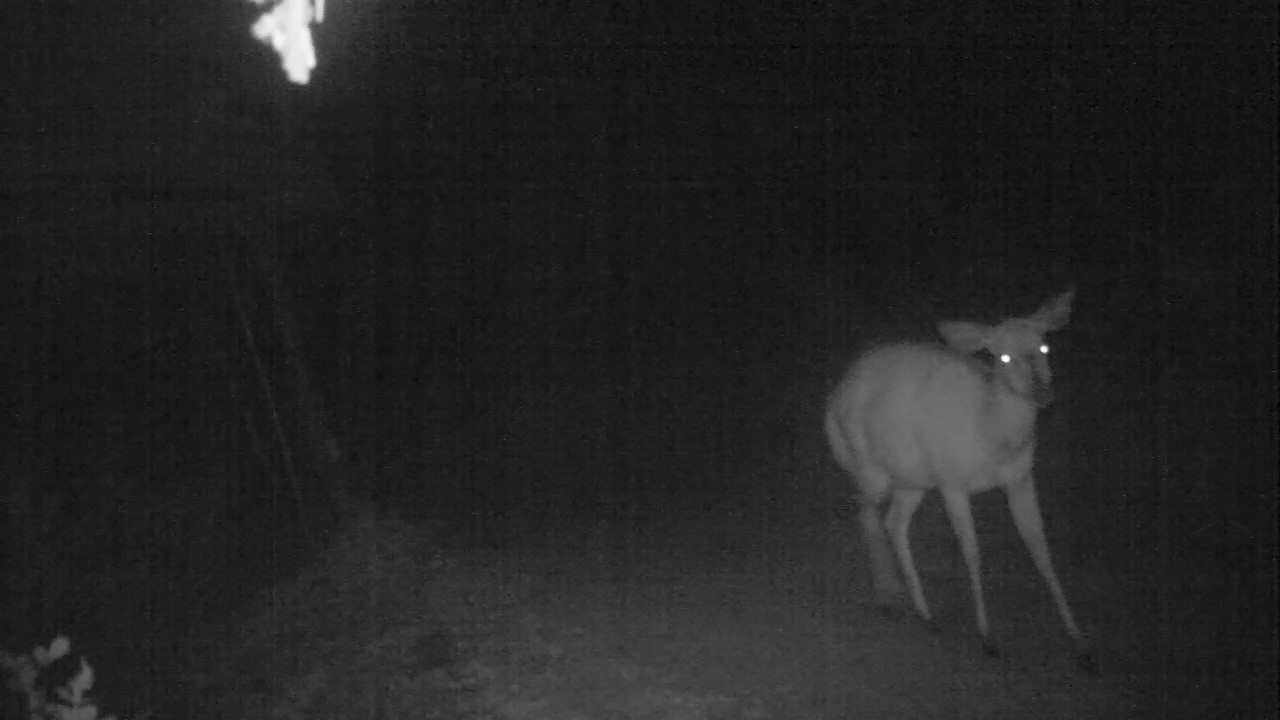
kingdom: Animalia
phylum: Chordata
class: Mammalia
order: Artiodactyla
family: Bovidae
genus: Tragelaphus
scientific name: Tragelaphus angasii
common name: Nyala
